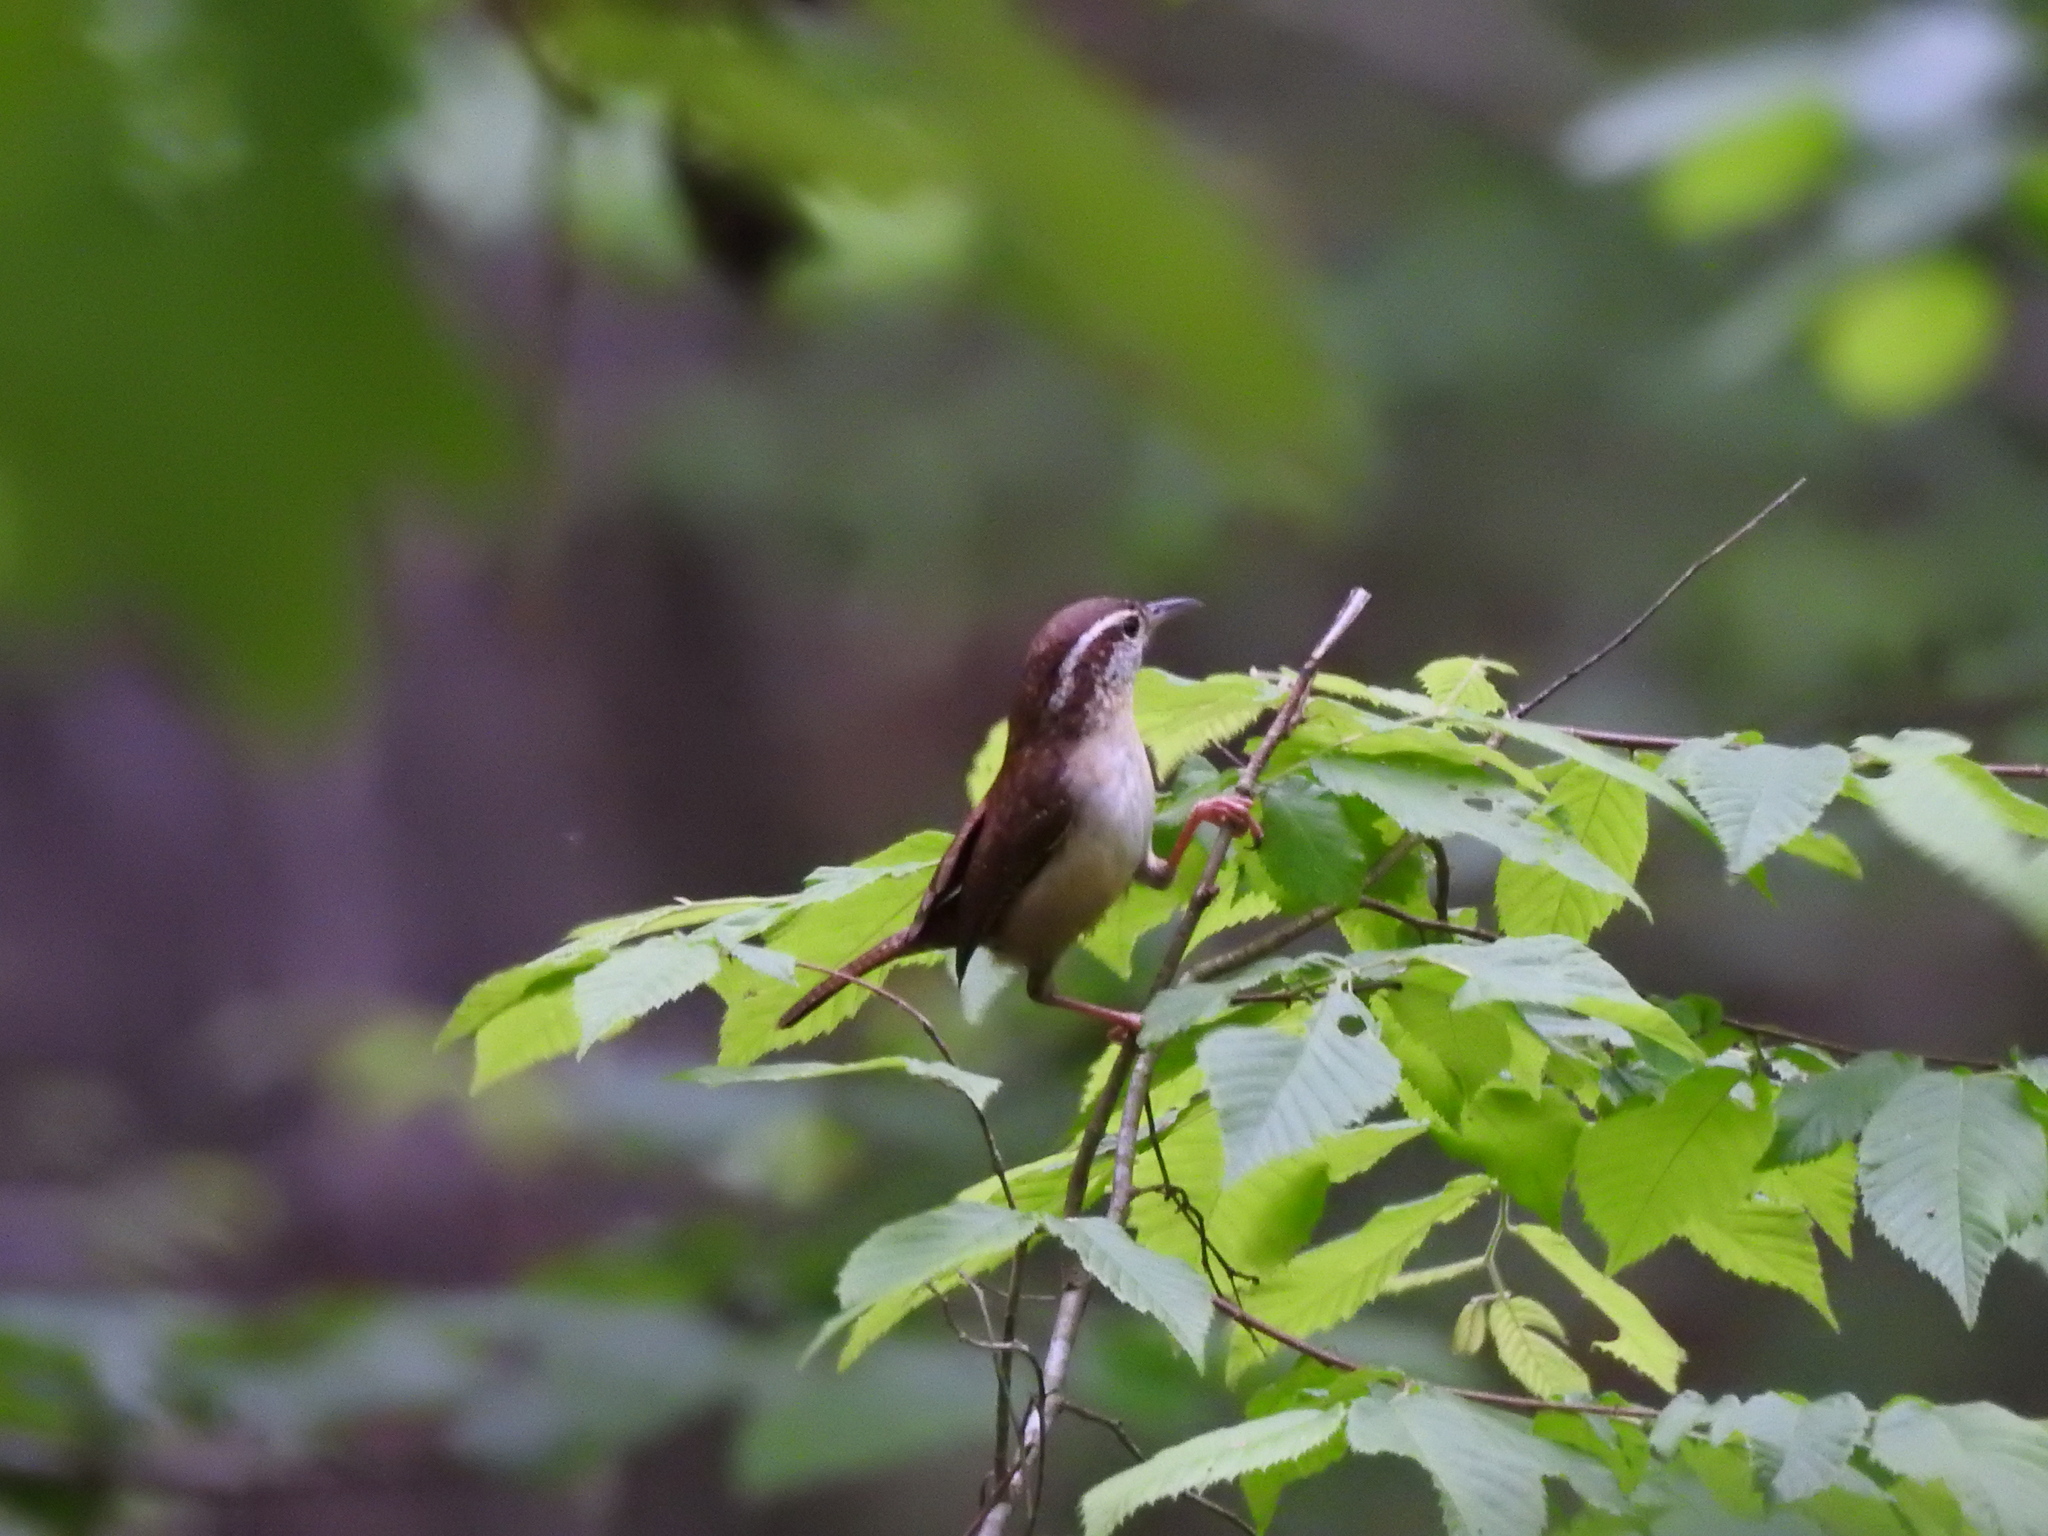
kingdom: Animalia
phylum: Chordata
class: Aves
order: Passeriformes
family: Troglodytidae
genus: Thryothorus
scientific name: Thryothorus ludovicianus
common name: Carolina wren
